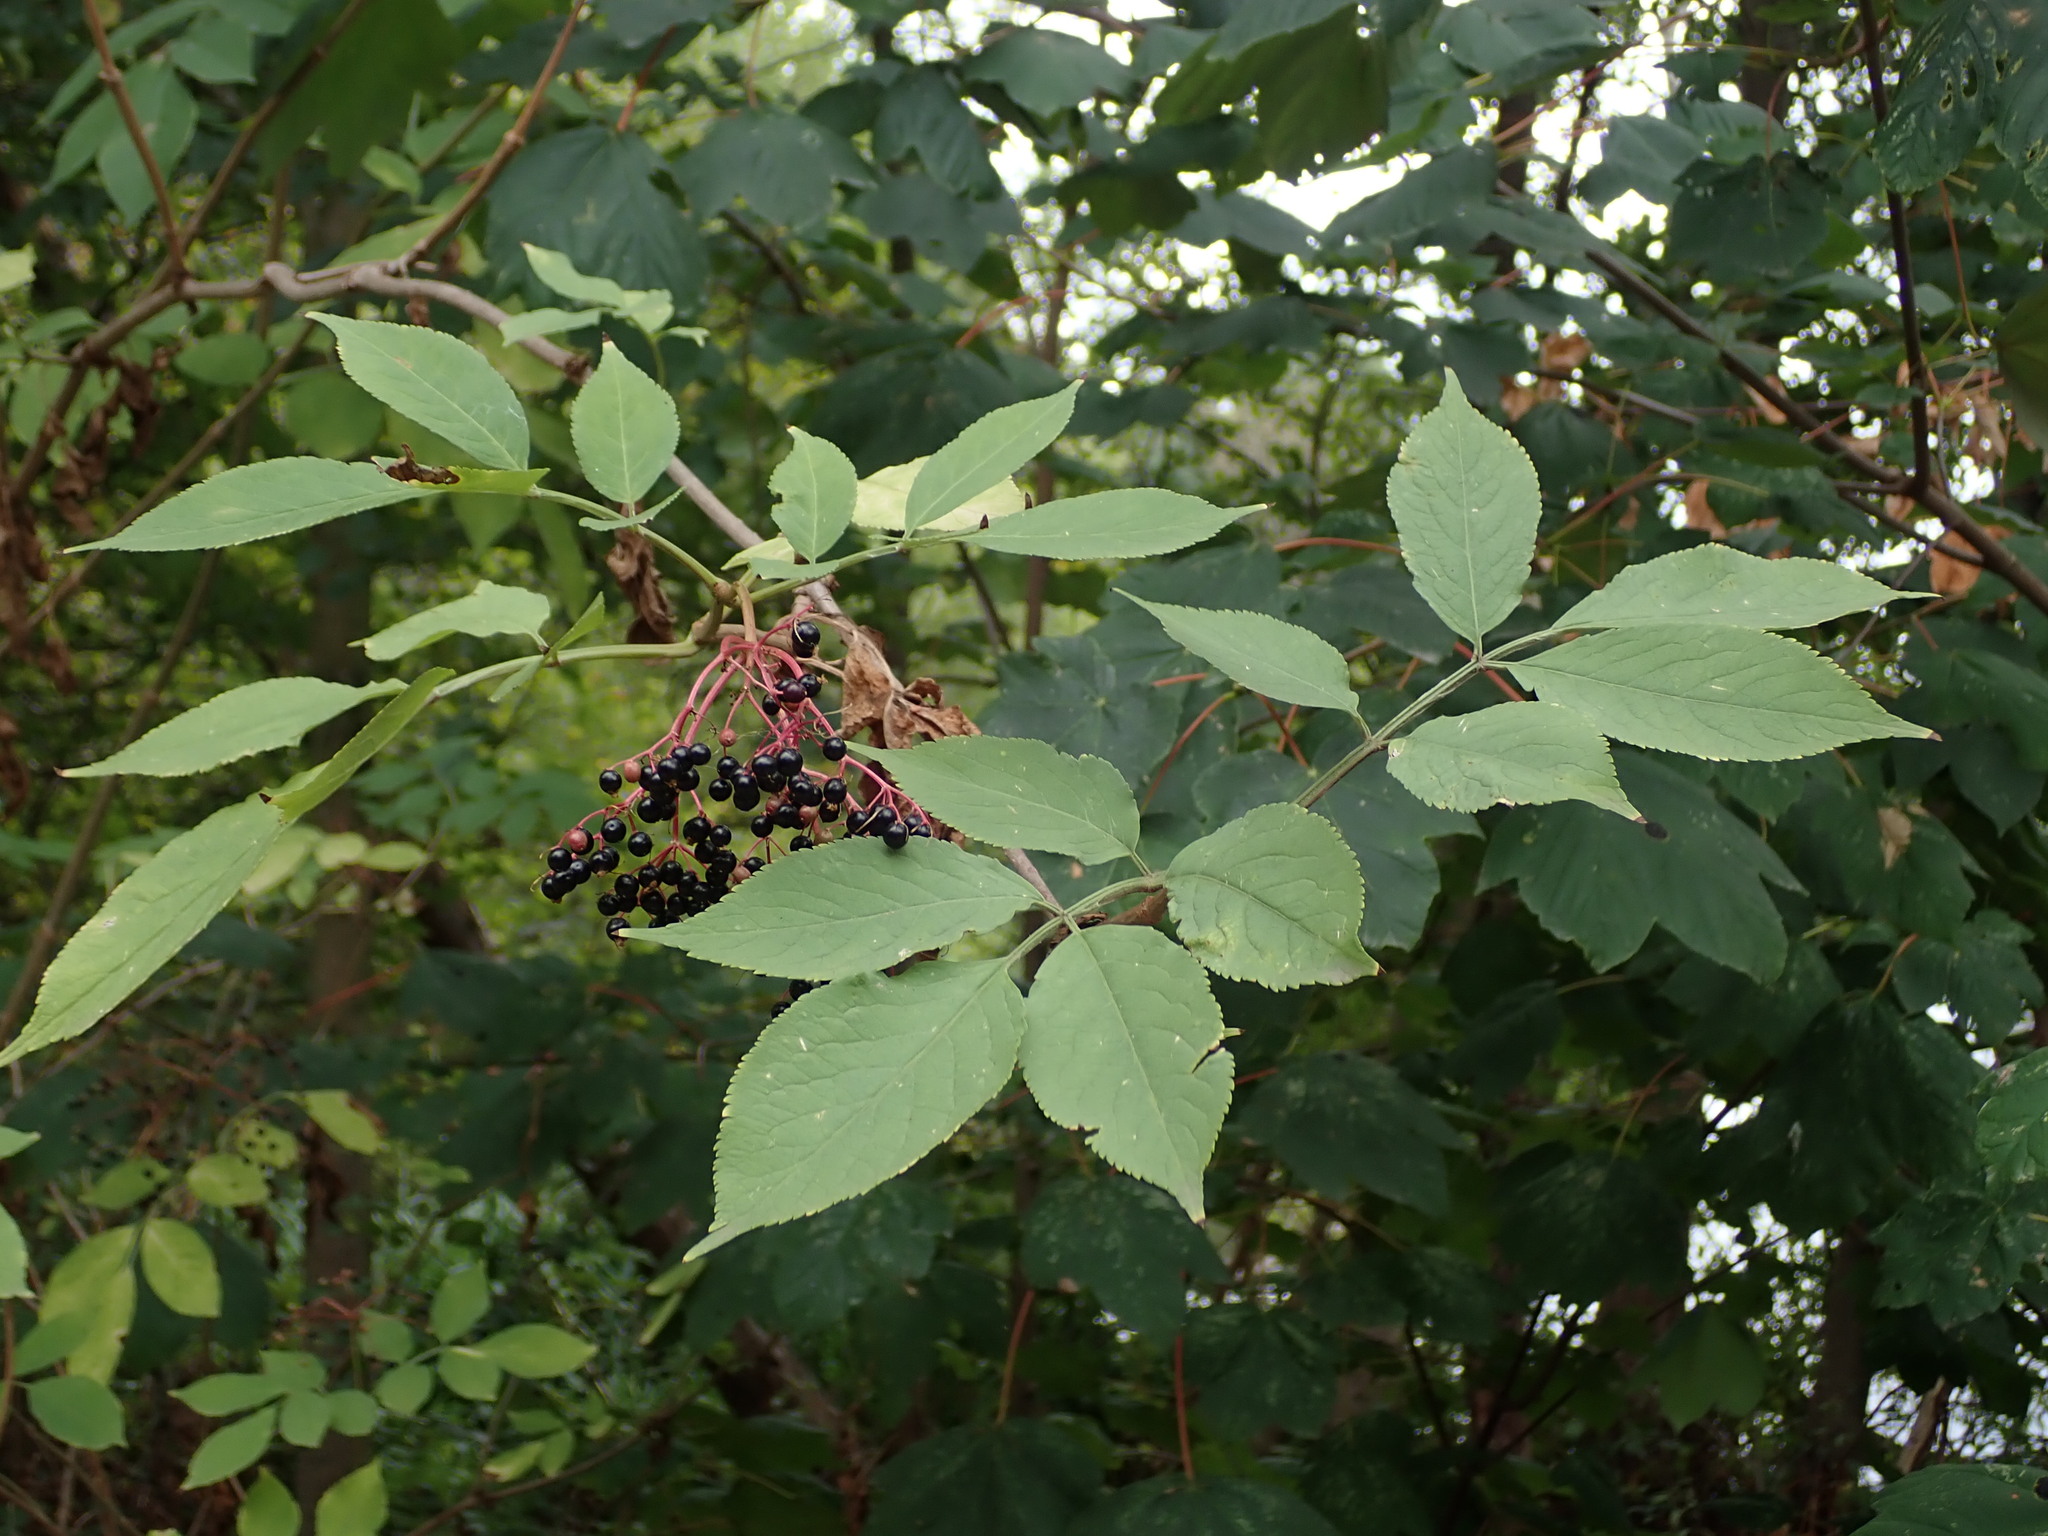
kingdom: Plantae
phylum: Tracheophyta
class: Magnoliopsida
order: Dipsacales
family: Viburnaceae
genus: Sambucus
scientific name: Sambucus nigra
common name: Elder
